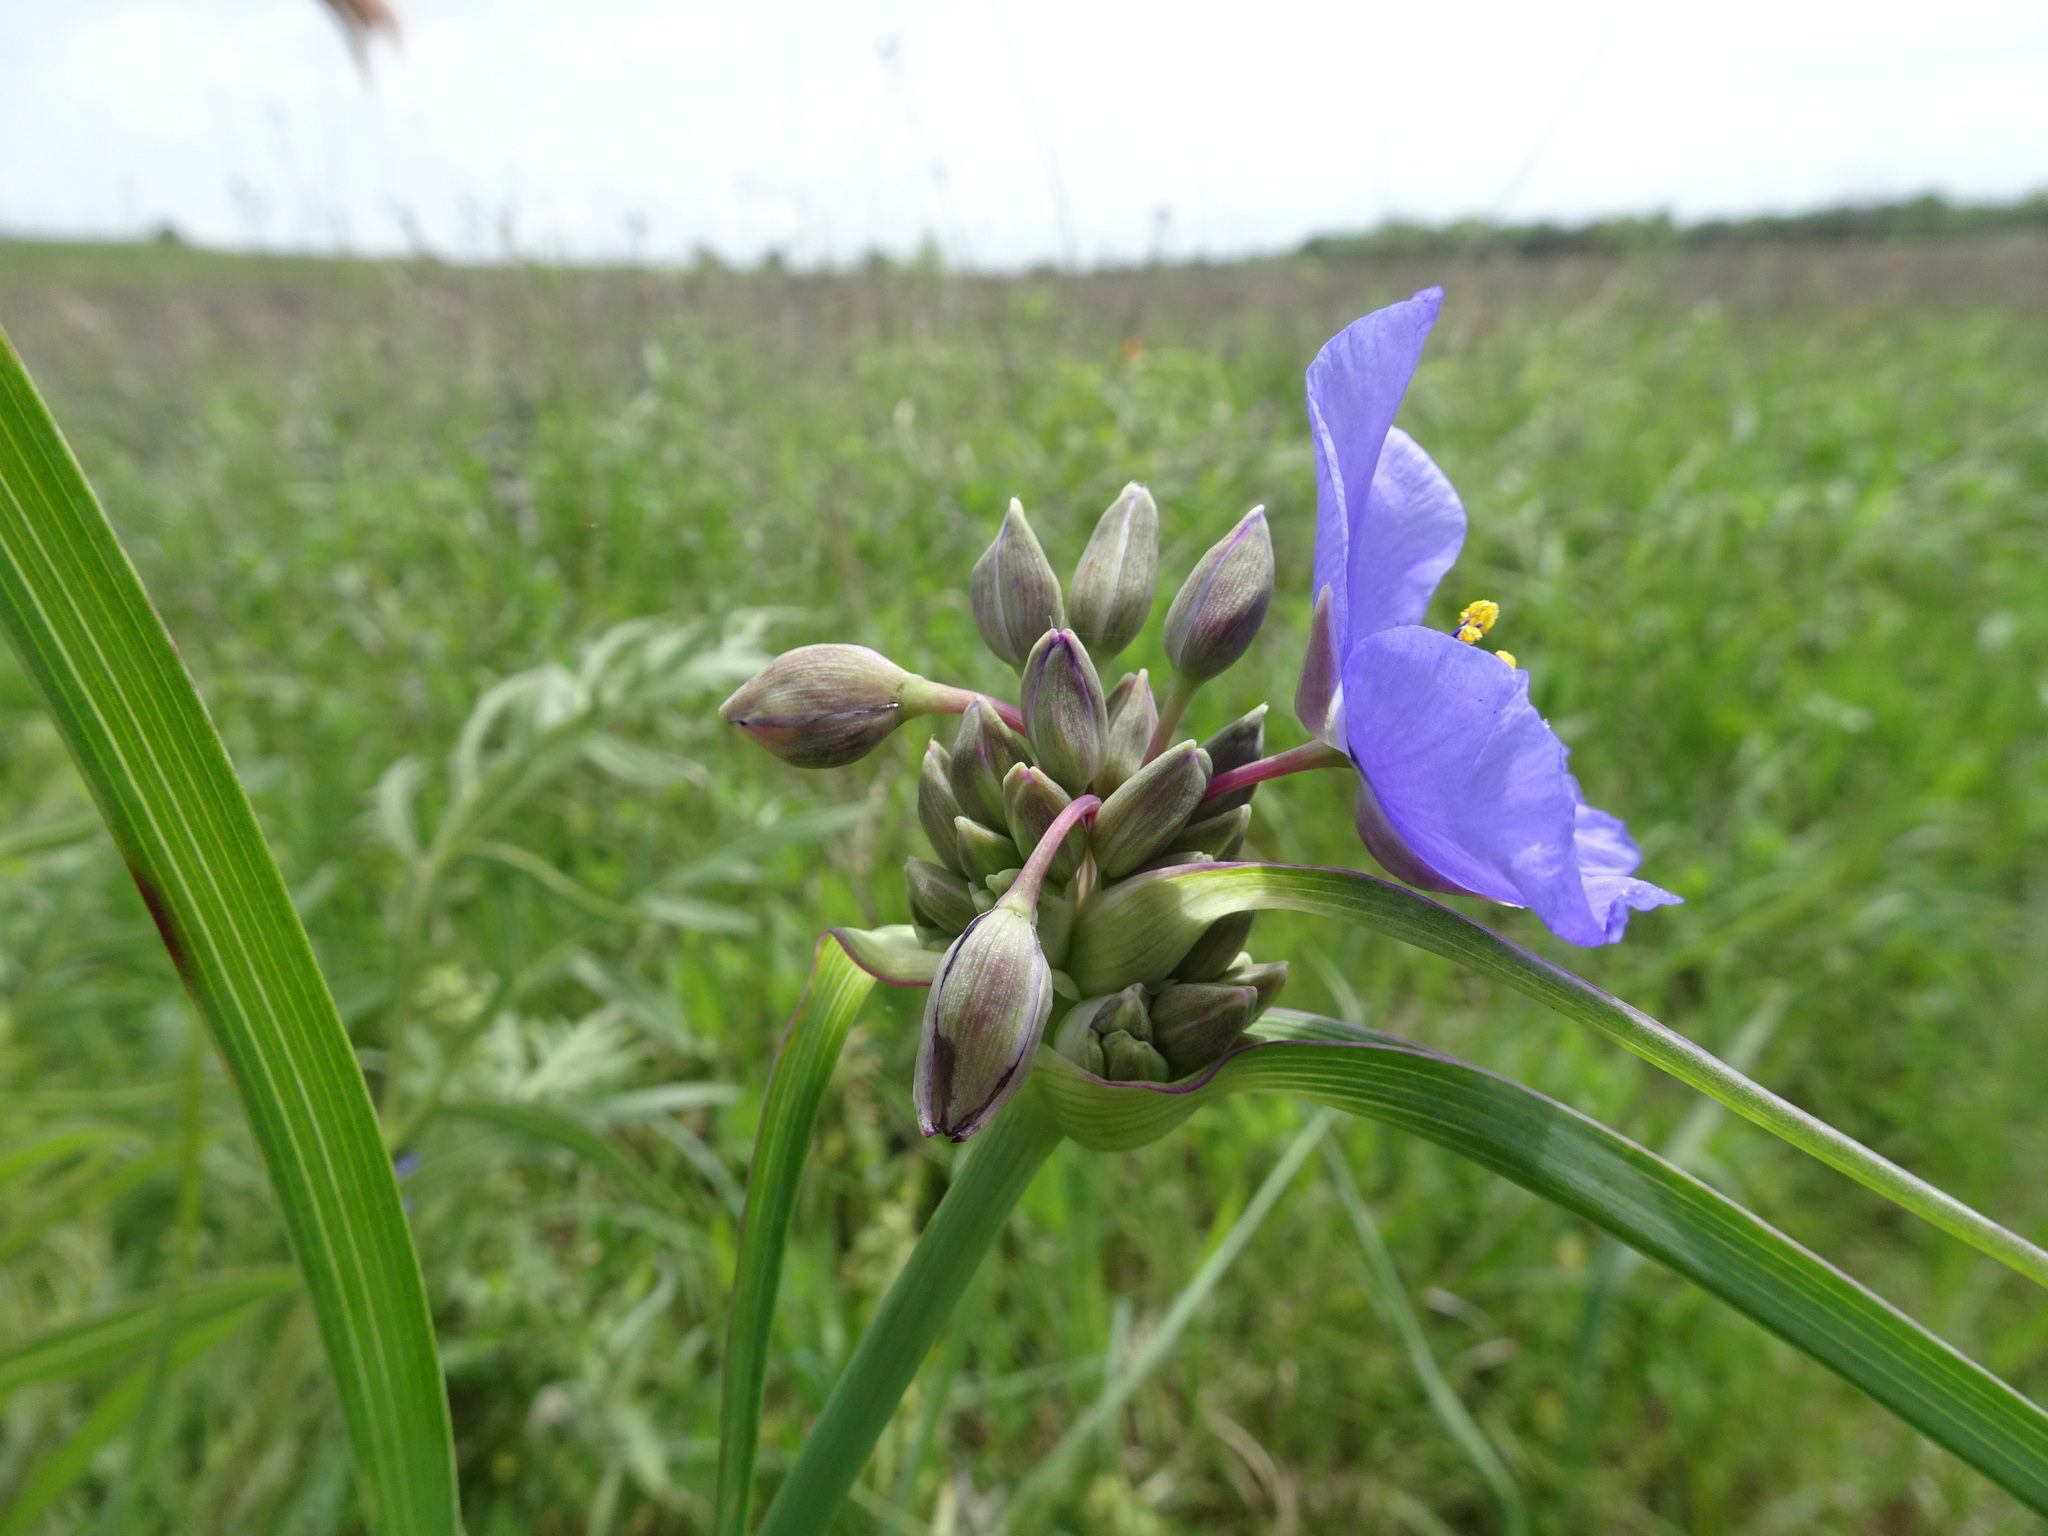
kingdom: Plantae
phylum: Tracheophyta
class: Liliopsida
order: Commelinales
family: Commelinaceae
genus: Tradescantia
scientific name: Tradescantia ohiensis
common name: Ohio spiderwort
